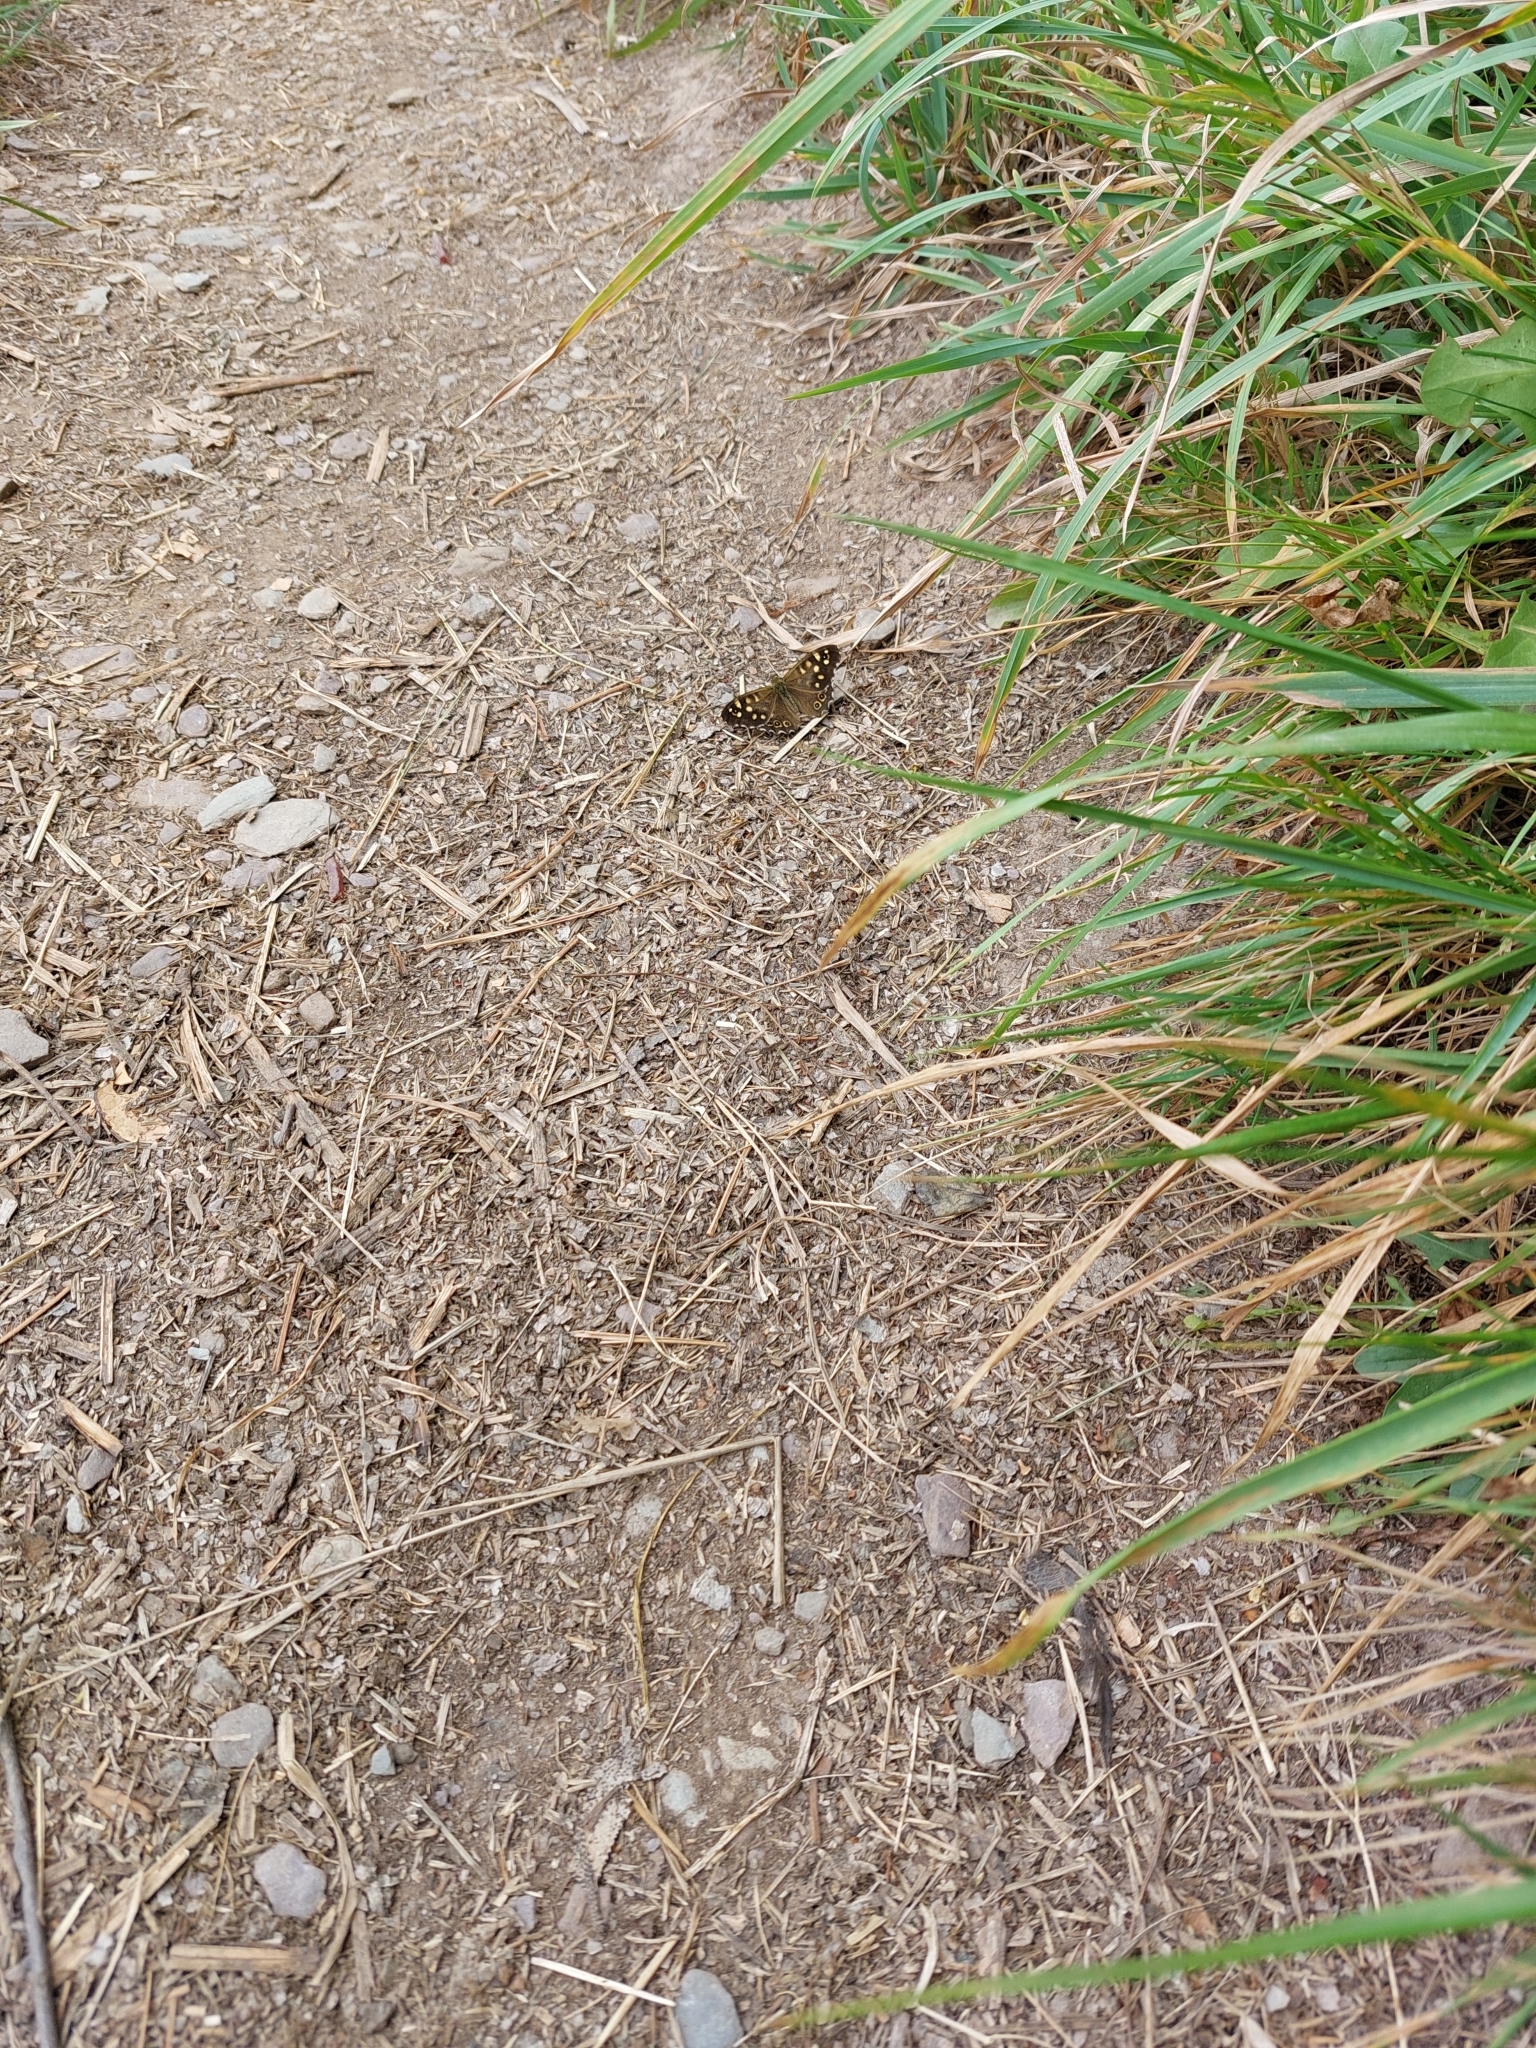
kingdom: Animalia
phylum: Arthropoda
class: Insecta
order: Lepidoptera
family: Nymphalidae
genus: Pararge
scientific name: Pararge aegeria
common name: Speckled wood
